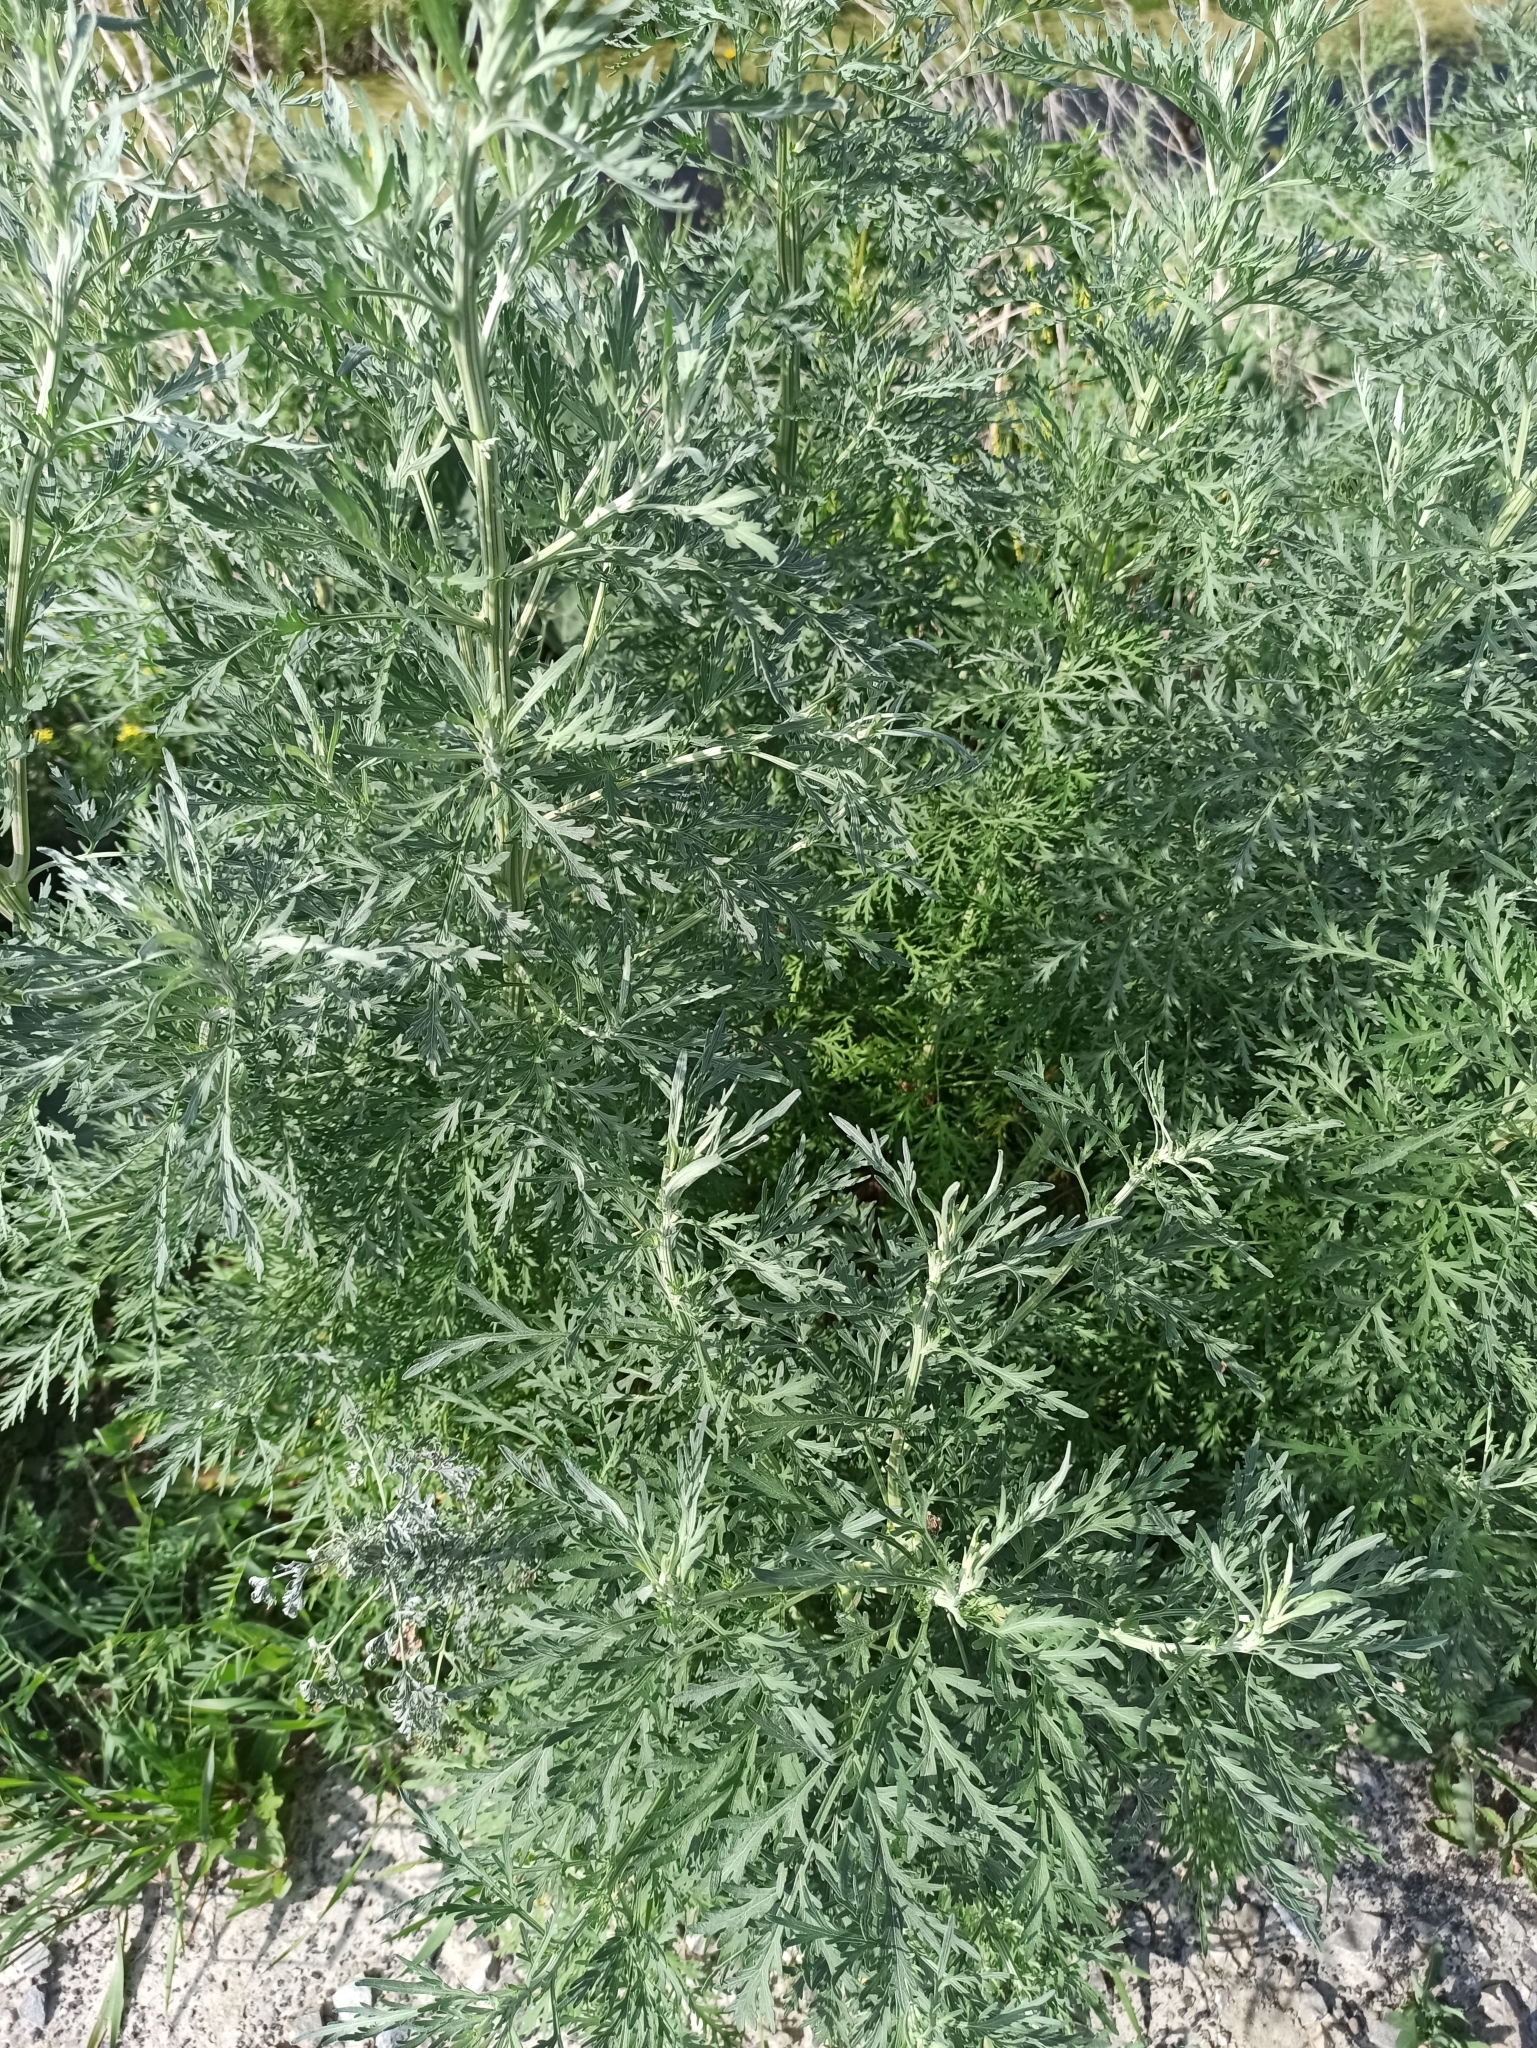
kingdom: Plantae
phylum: Tracheophyta
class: Magnoliopsida
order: Asterales
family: Asteraceae
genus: Artemisia
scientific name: Artemisia absinthium
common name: Wormwood
